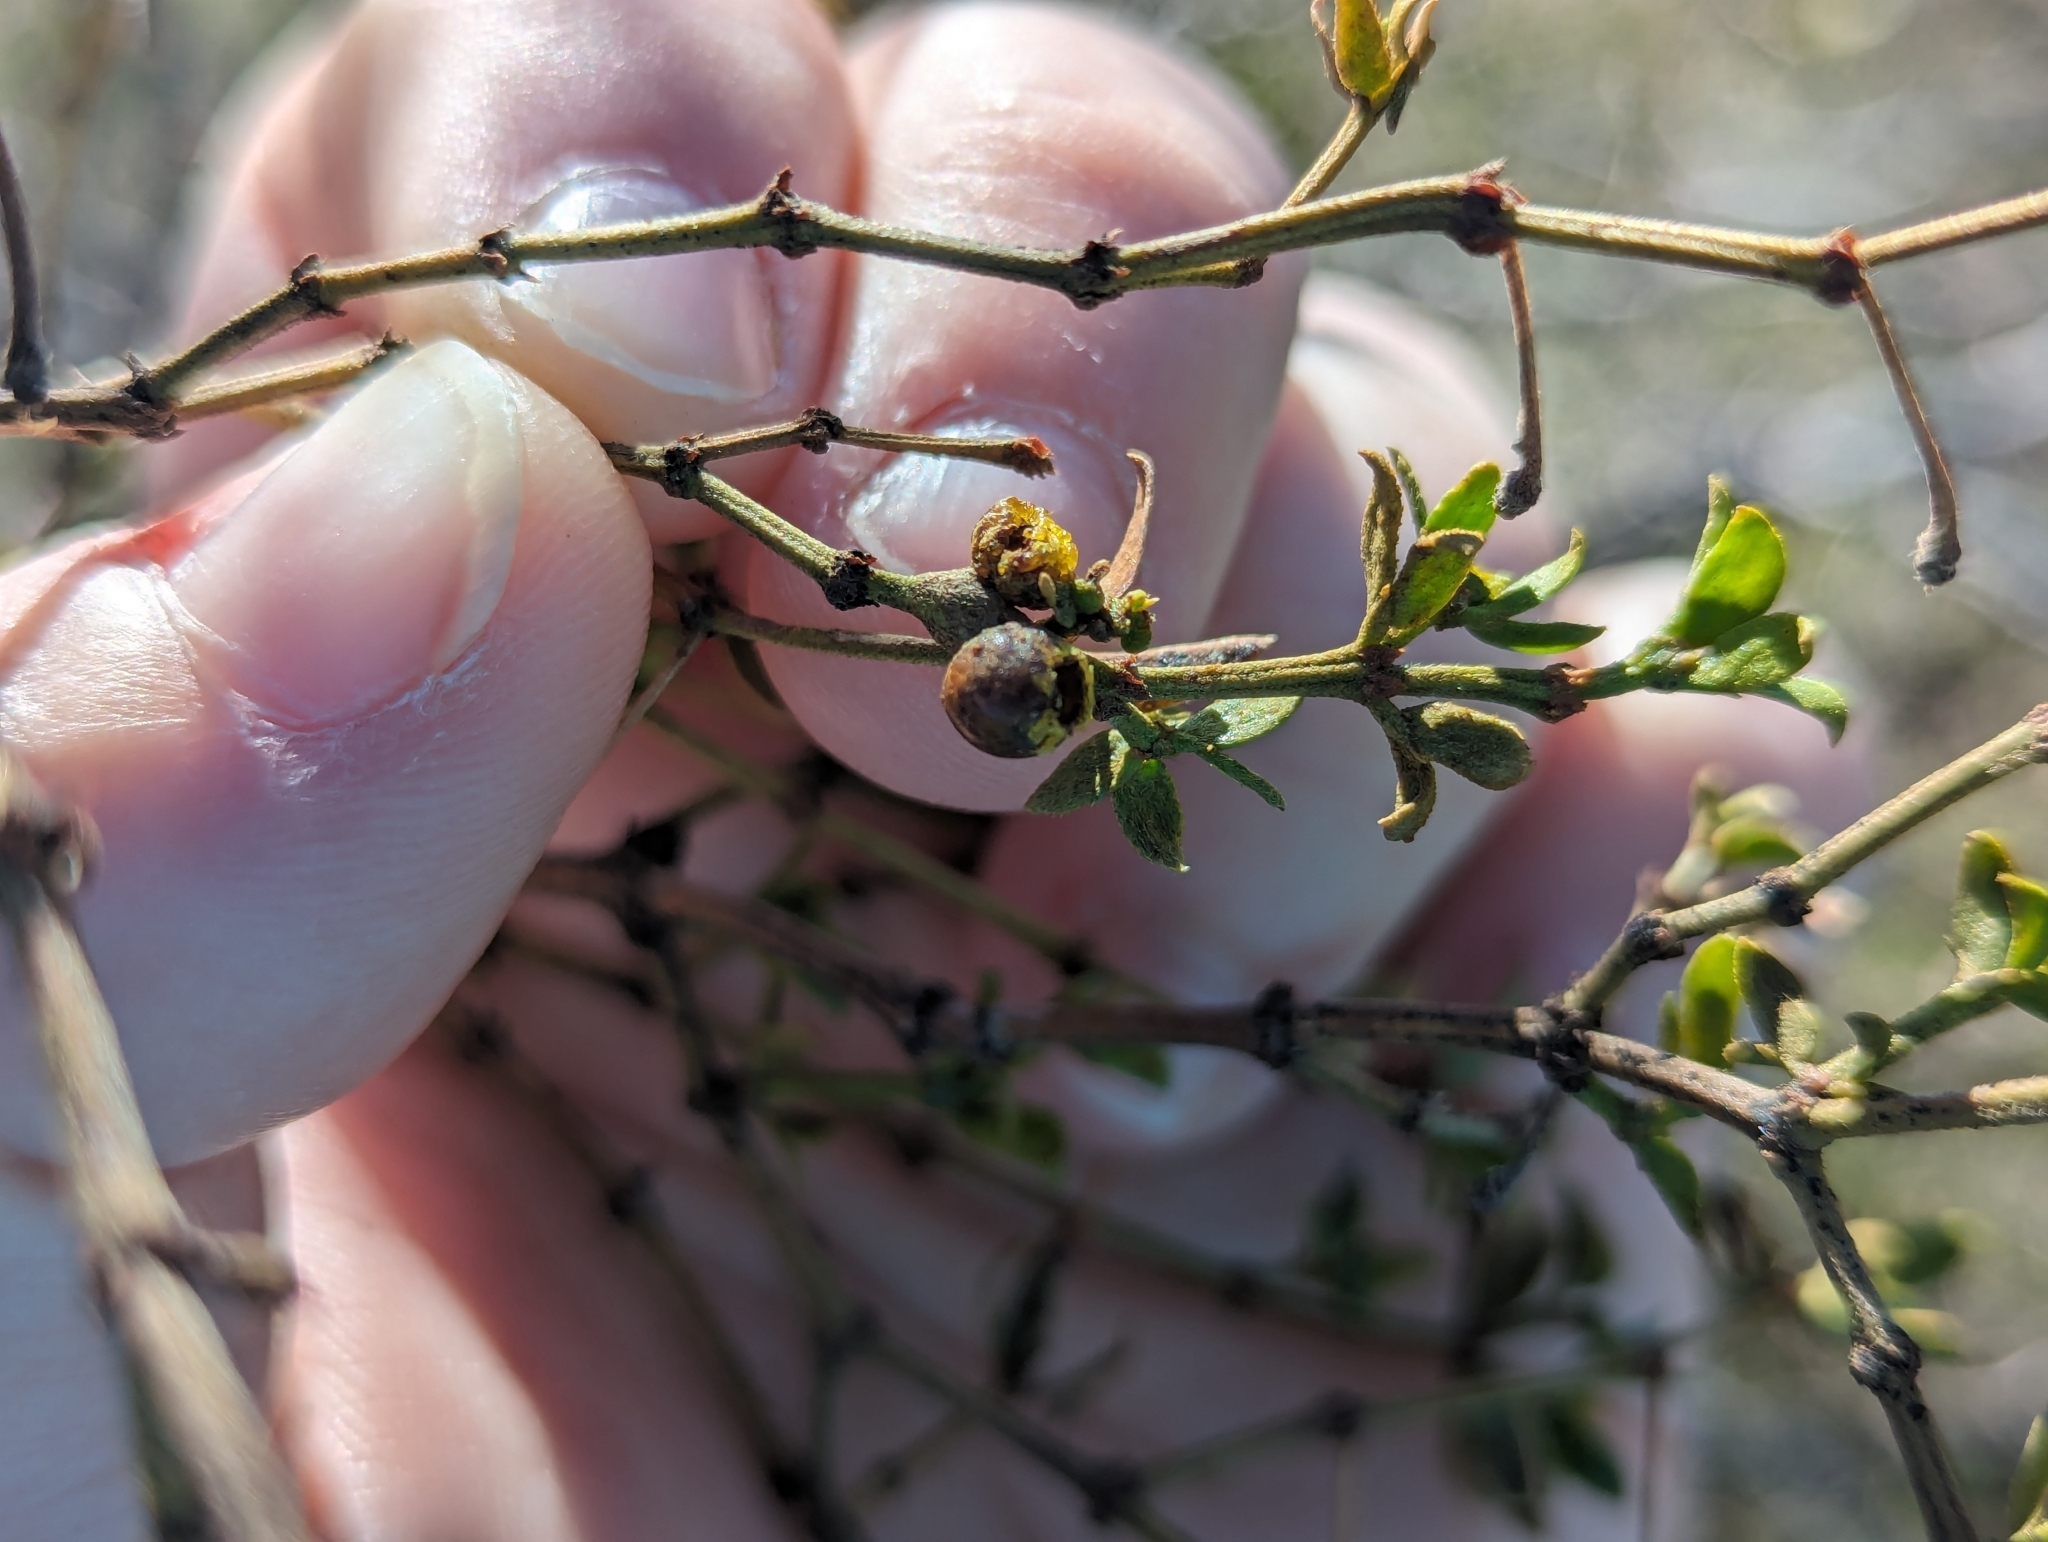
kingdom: Animalia
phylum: Arthropoda
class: Insecta
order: Diptera
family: Cecidomyiidae
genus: Asphondylia
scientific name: Asphondylia resinosa
